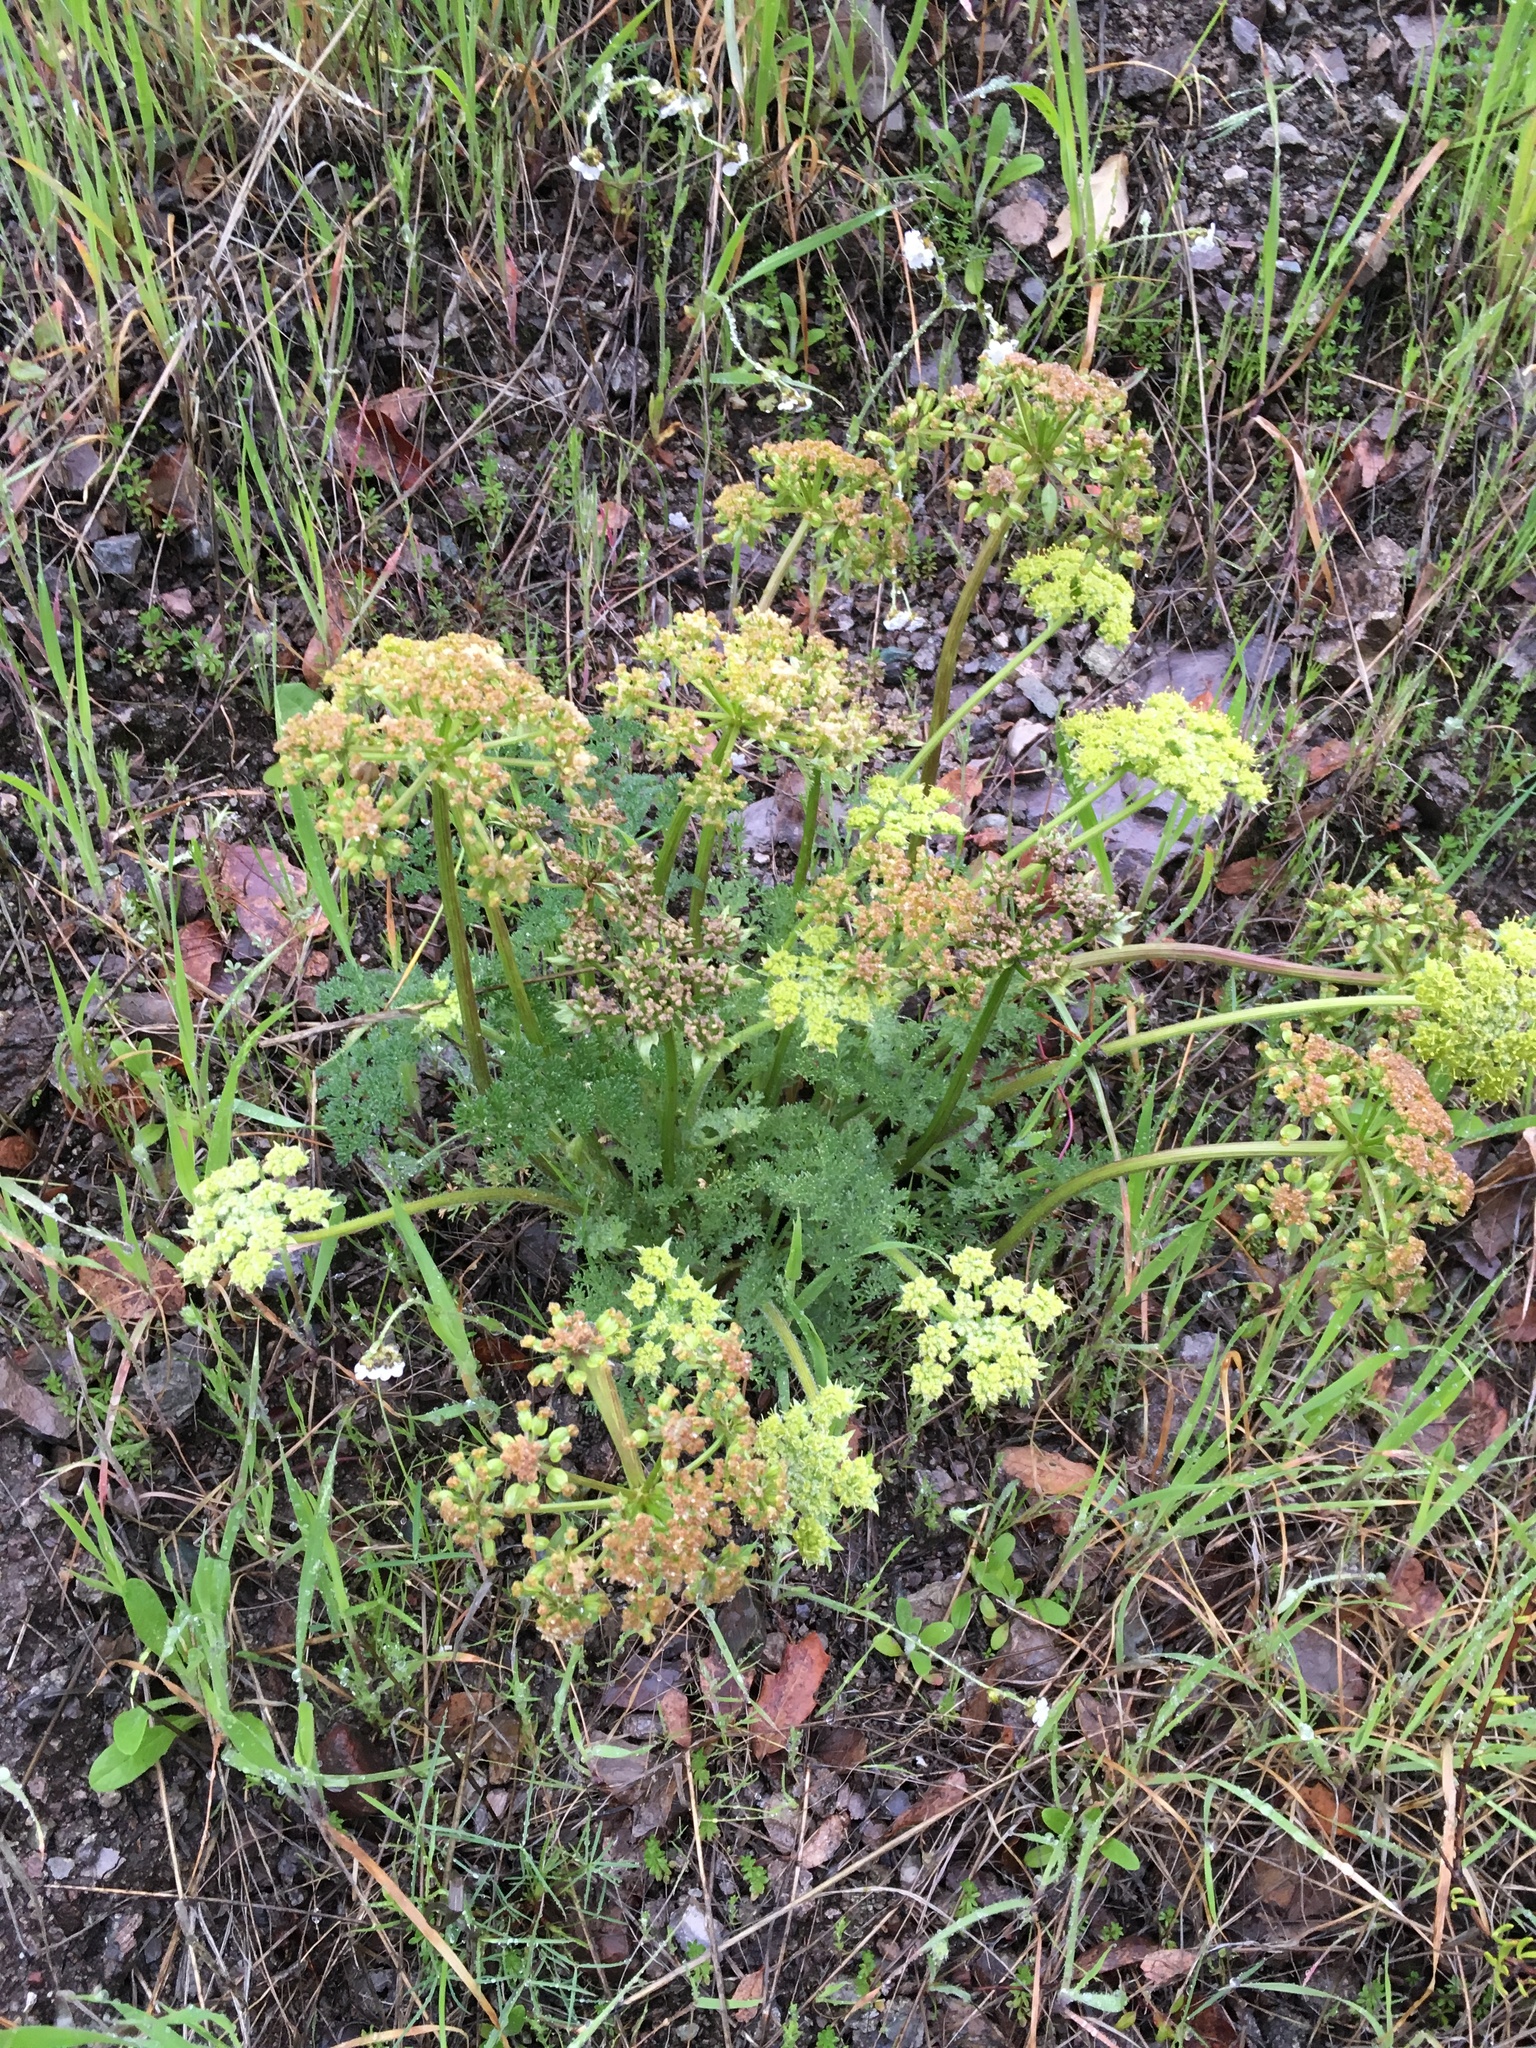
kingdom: Plantae
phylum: Tracheophyta
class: Magnoliopsida
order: Apiales
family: Apiaceae
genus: Lomatium
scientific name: Lomatium dasycarpum
